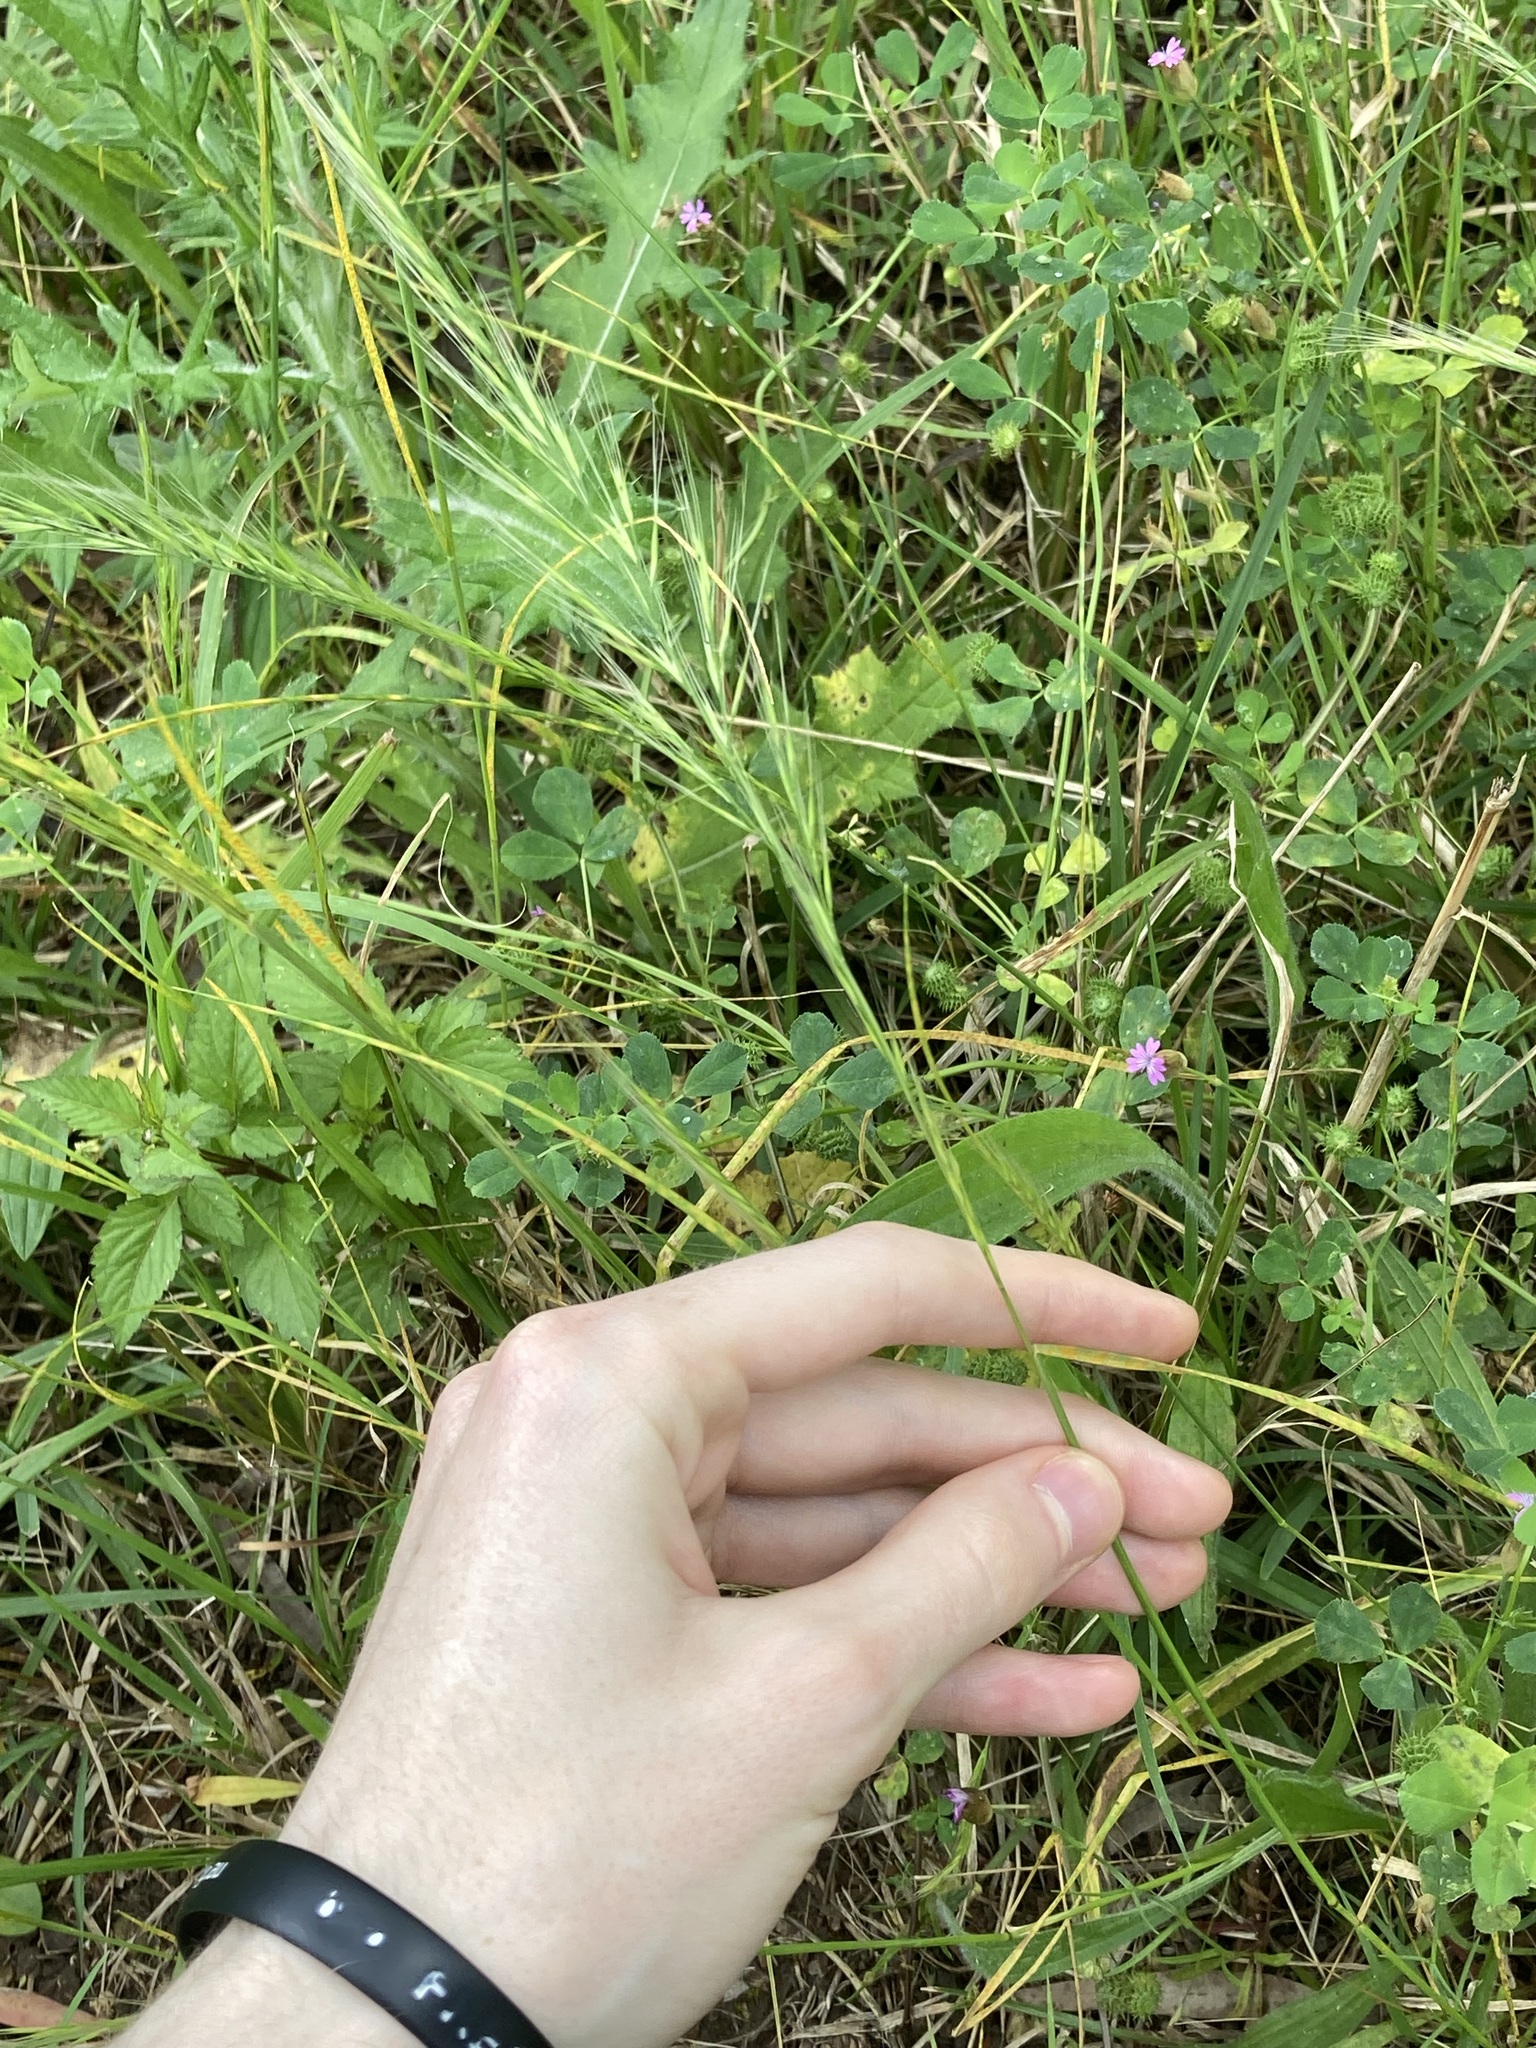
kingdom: Plantae
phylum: Tracheophyta
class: Liliopsida
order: Poales
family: Poaceae
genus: Festuca
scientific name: Festuca muralis
